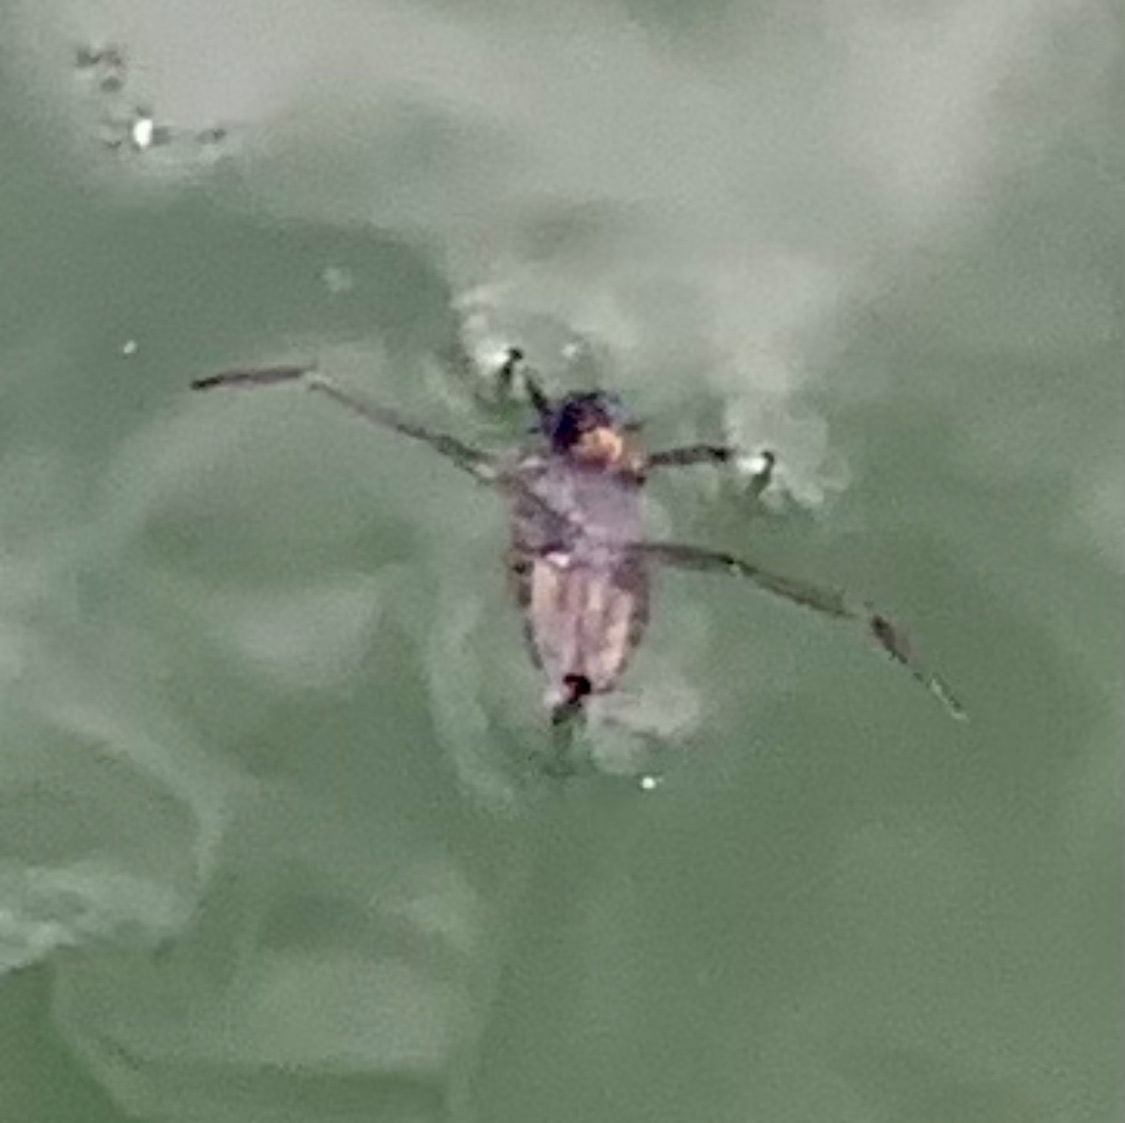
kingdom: Animalia
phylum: Arthropoda
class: Insecta
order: Hemiptera
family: Notonectidae
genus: Notonecta
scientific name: Notonecta
